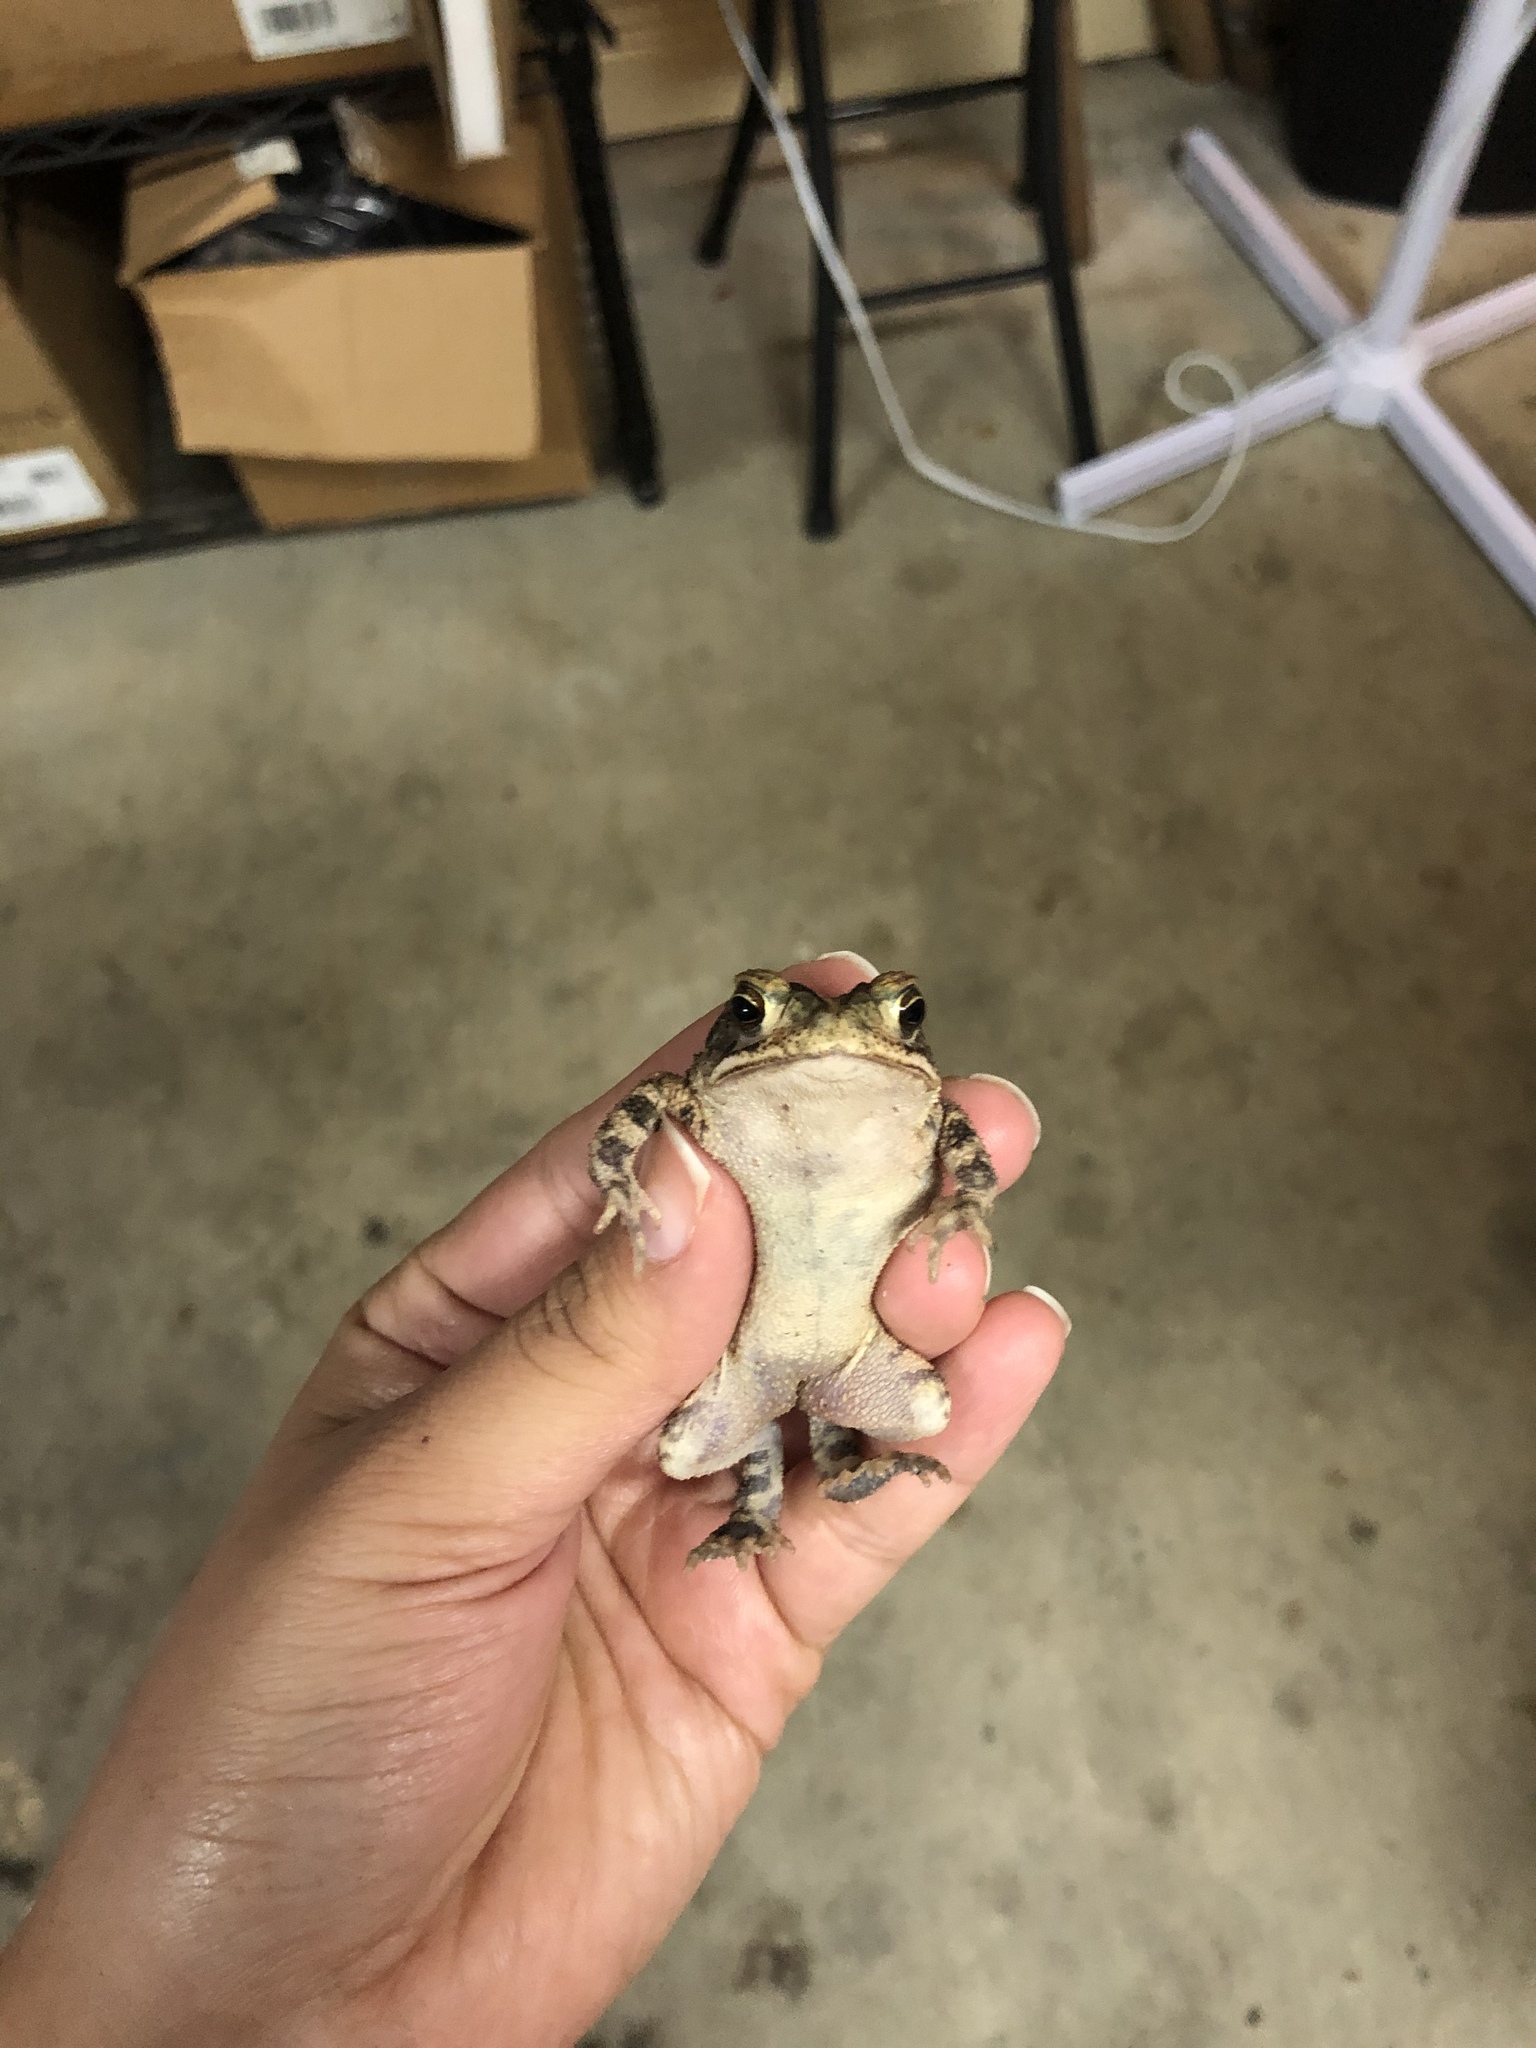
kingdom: Animalia
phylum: Chordata
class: Amphibia
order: Anura
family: Bufonidae
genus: Incilius
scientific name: Incilius nebulifer
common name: Gulf coast toad
